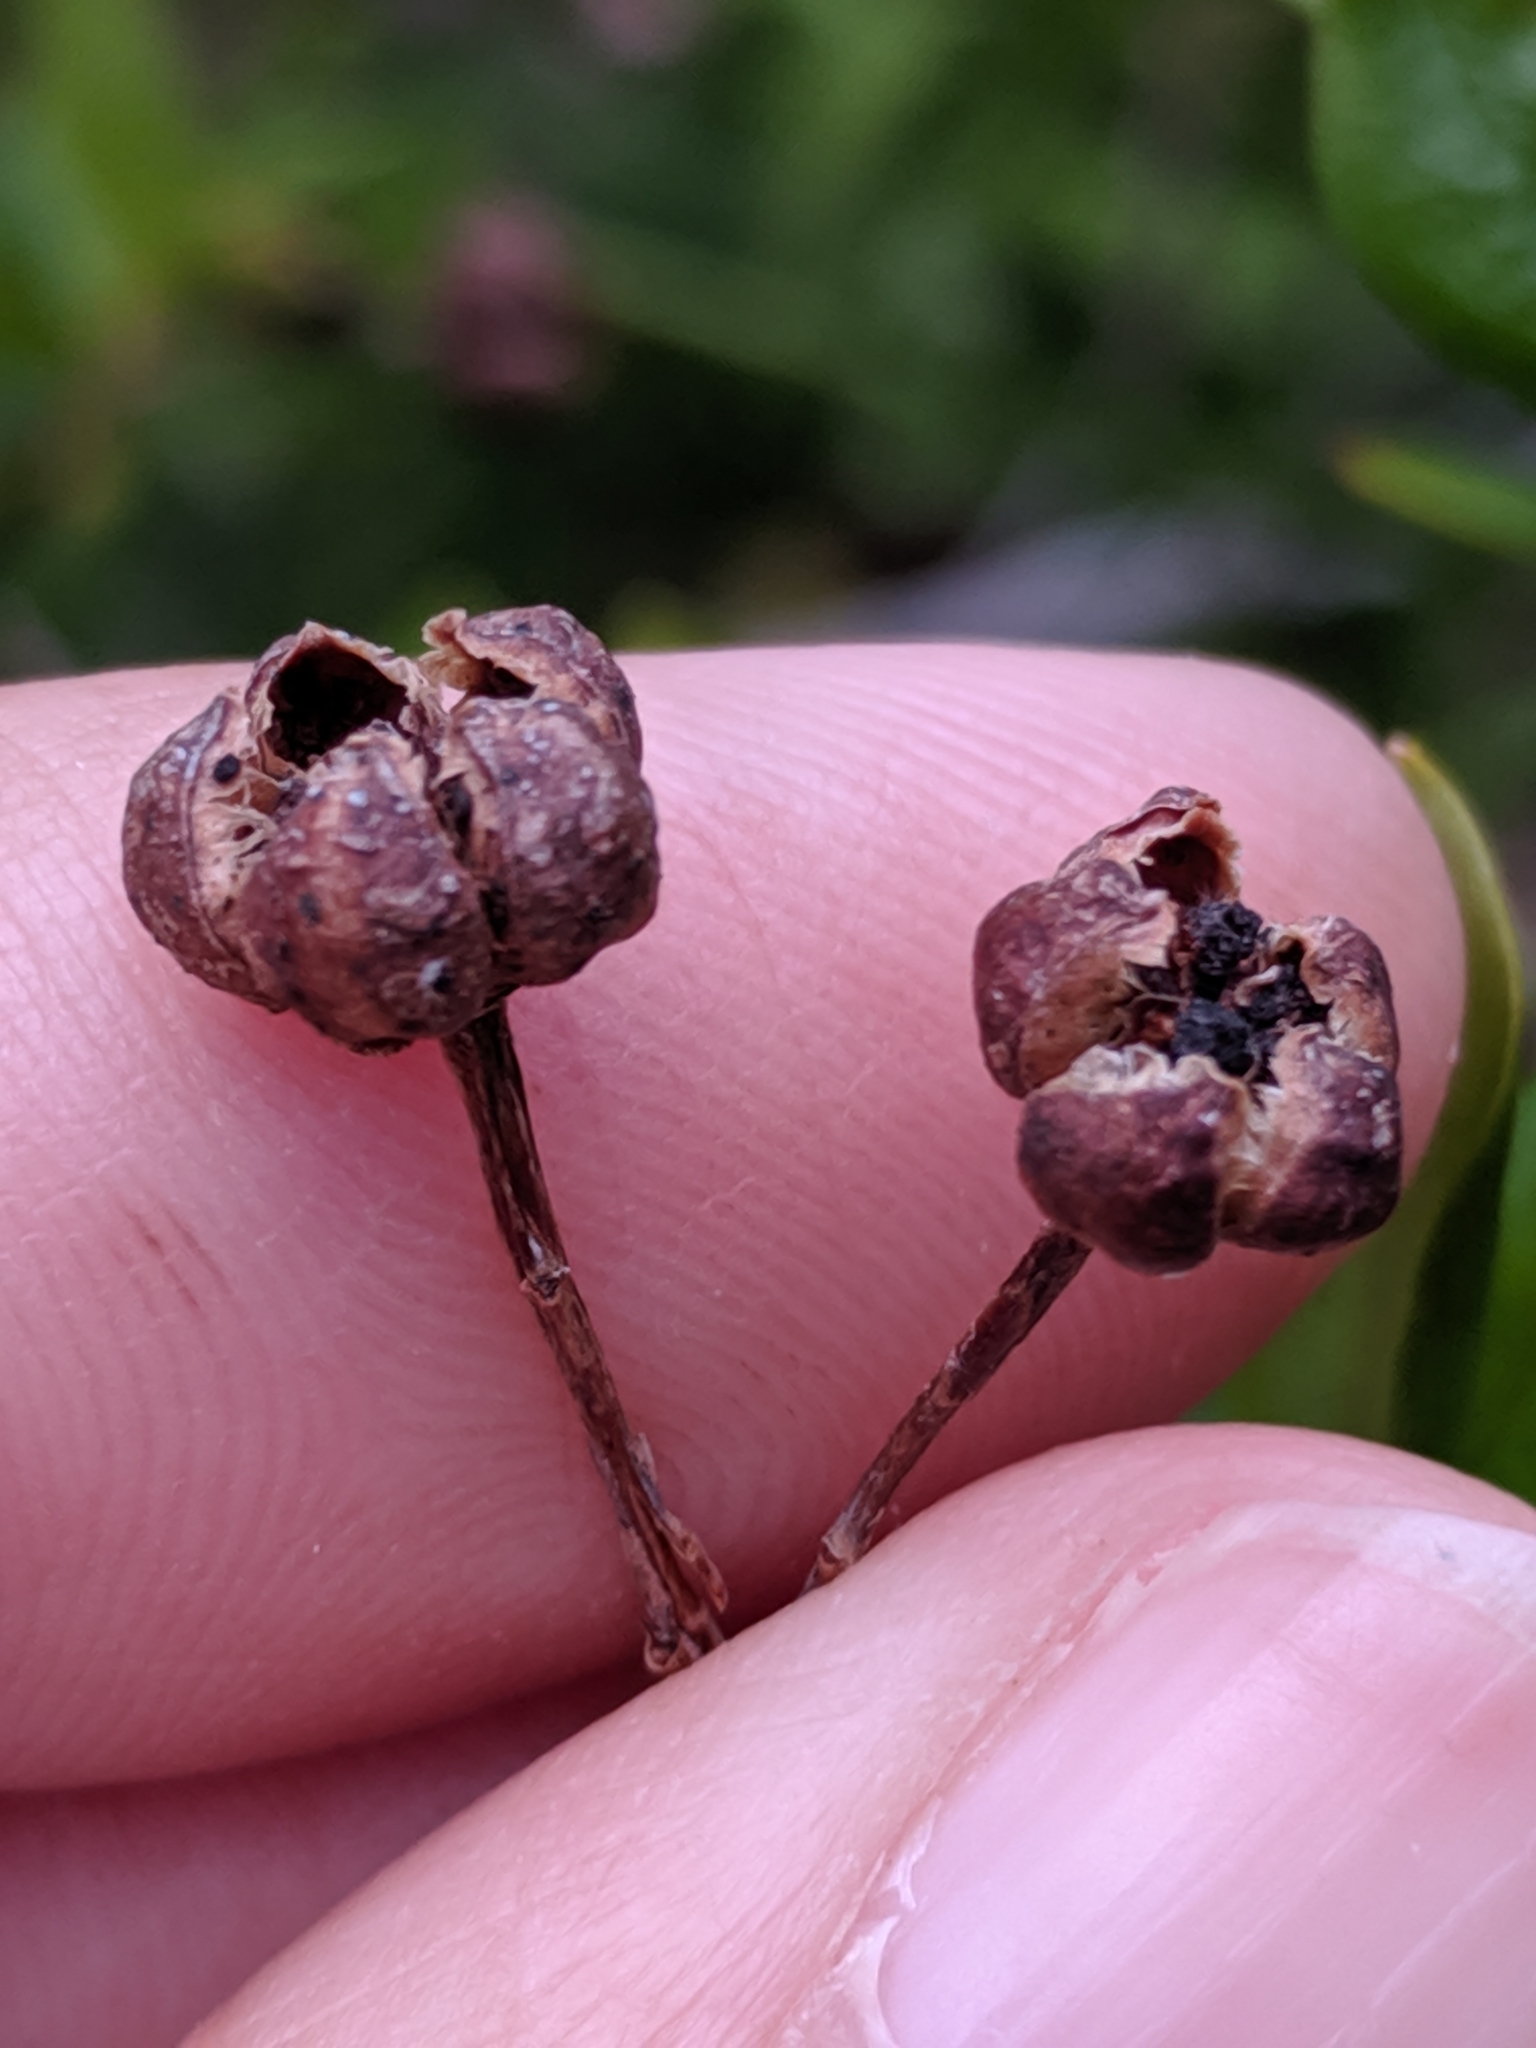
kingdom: Plantae
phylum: Tracheophyta
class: Magnoliopsida
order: Ericales
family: Ericaceae
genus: Elliottia
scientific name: Elliottia pyroliflora
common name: Copperbush
